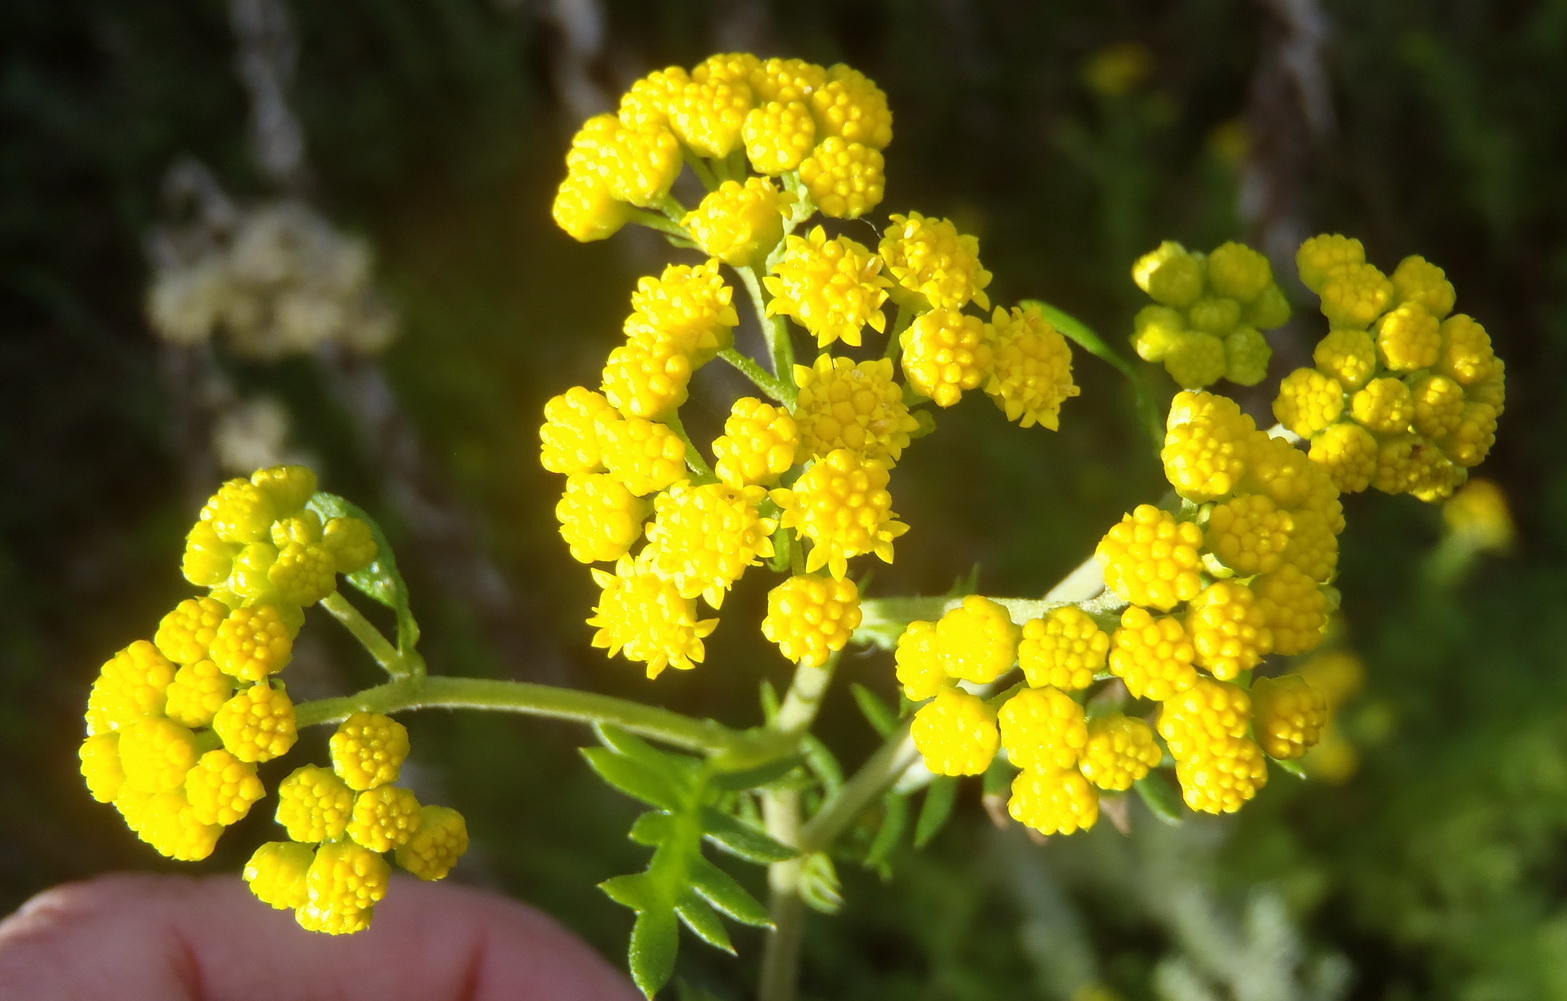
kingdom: Plantae
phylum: Tracheophyta
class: Magnoliopsida
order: Asterales
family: Asteraceae
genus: Hippia
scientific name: Hippia frutescens
